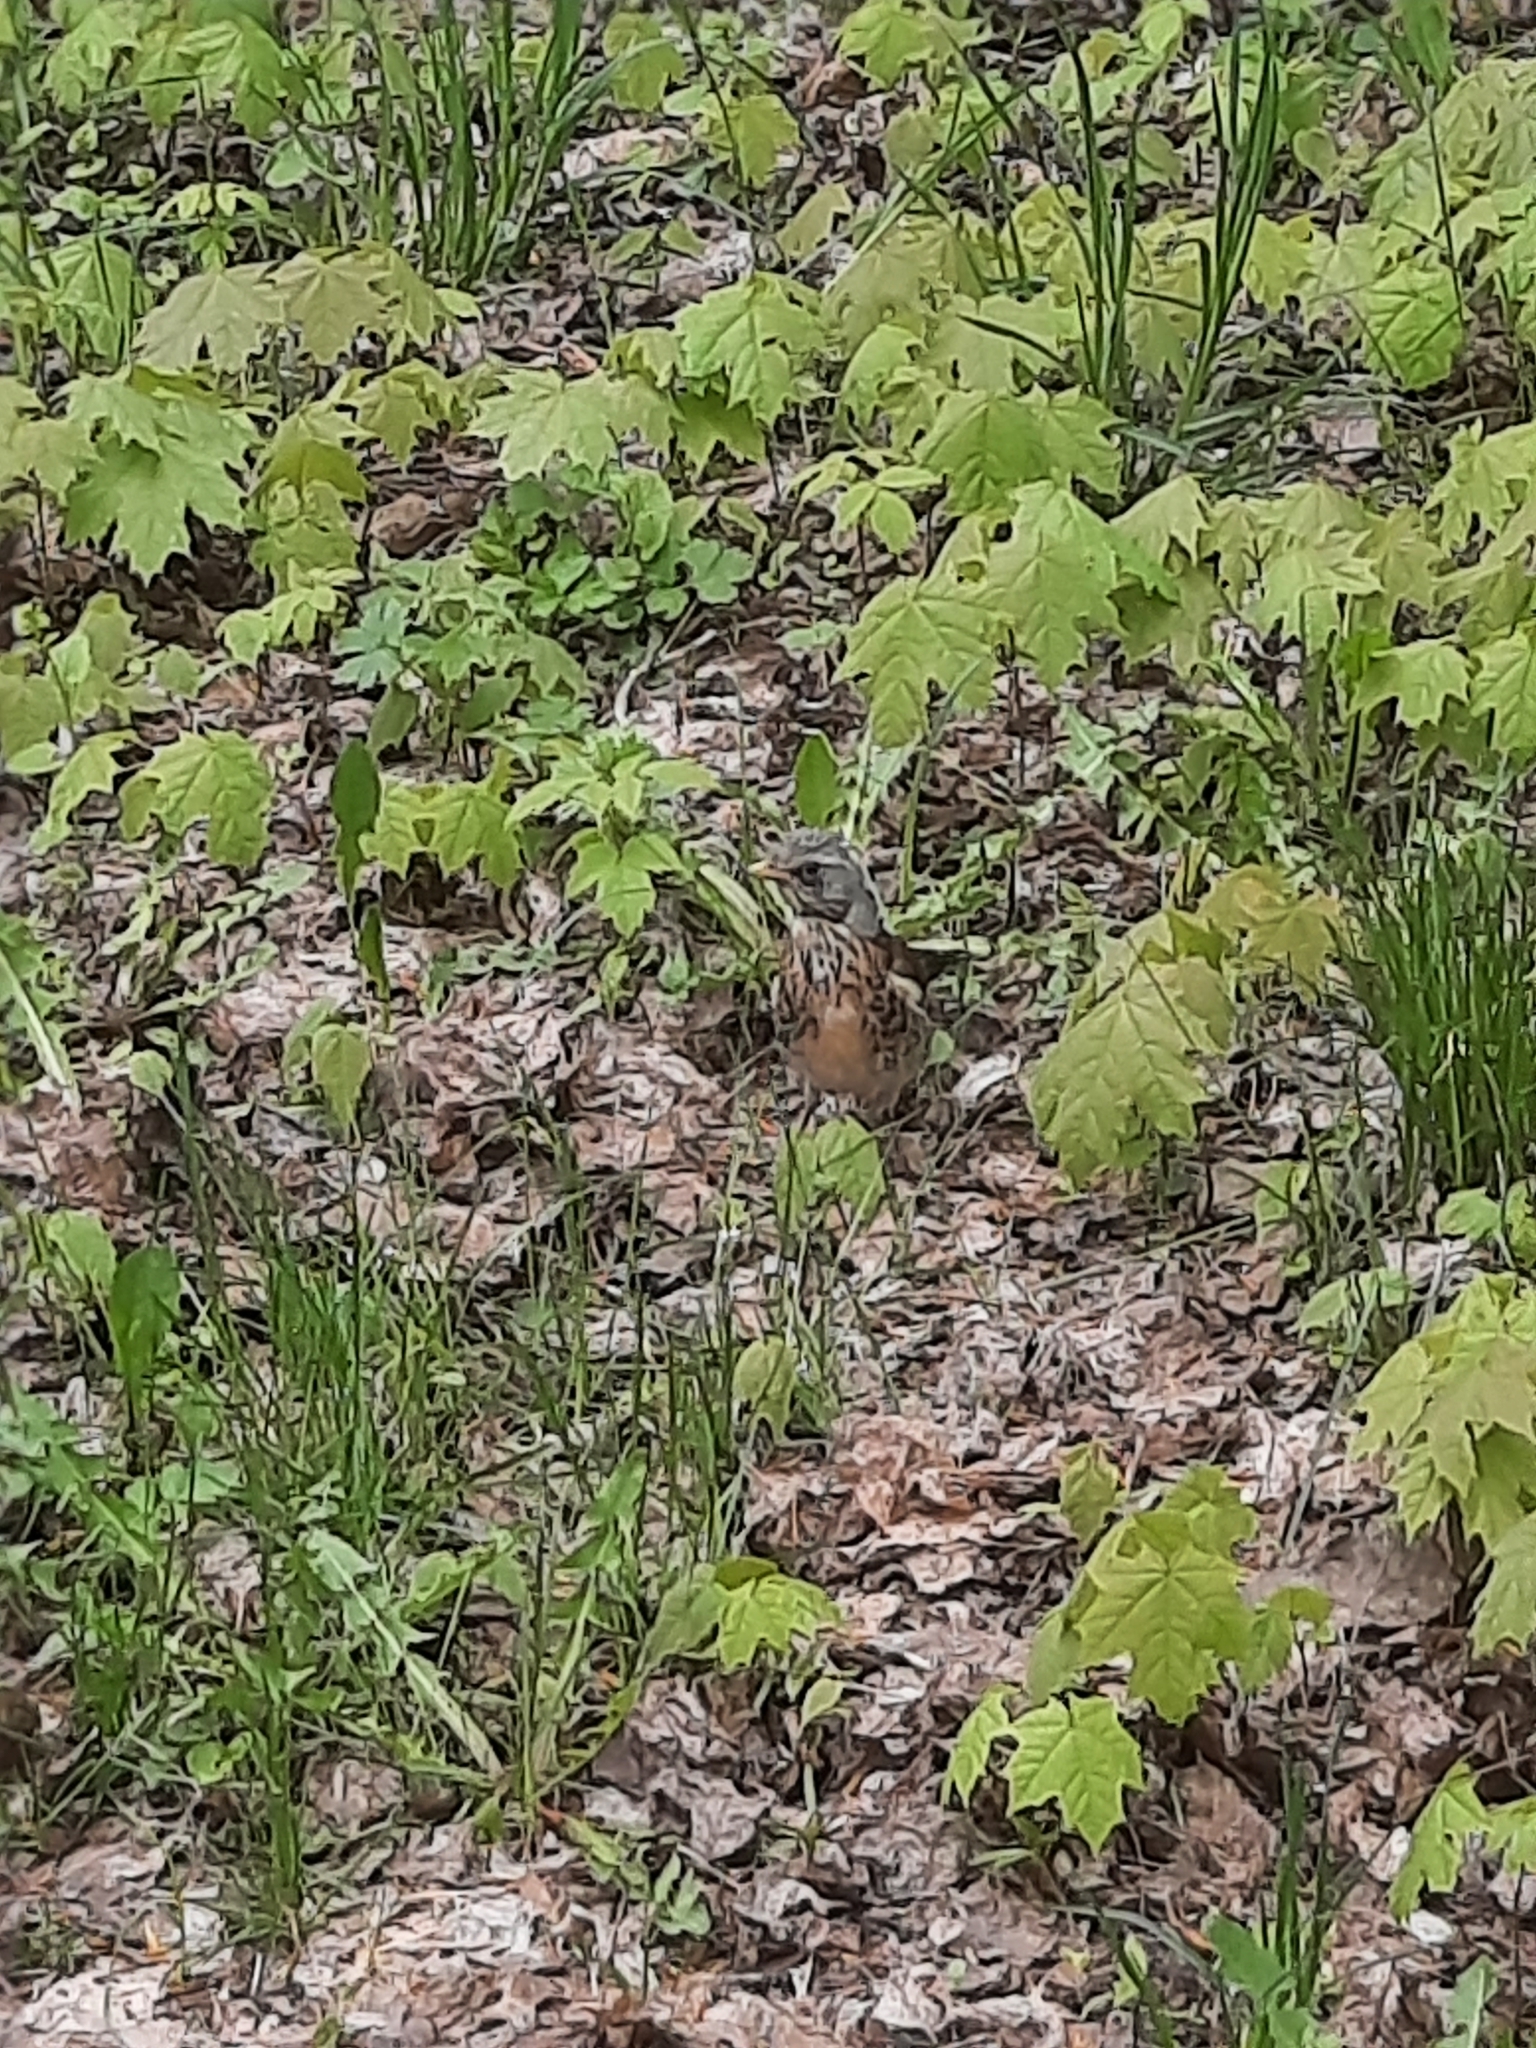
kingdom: Animalia
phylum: Chordata
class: Aves
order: Passeriformes
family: Turdidae
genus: Turdus
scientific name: Turdus pilaris
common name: Fieldfare
